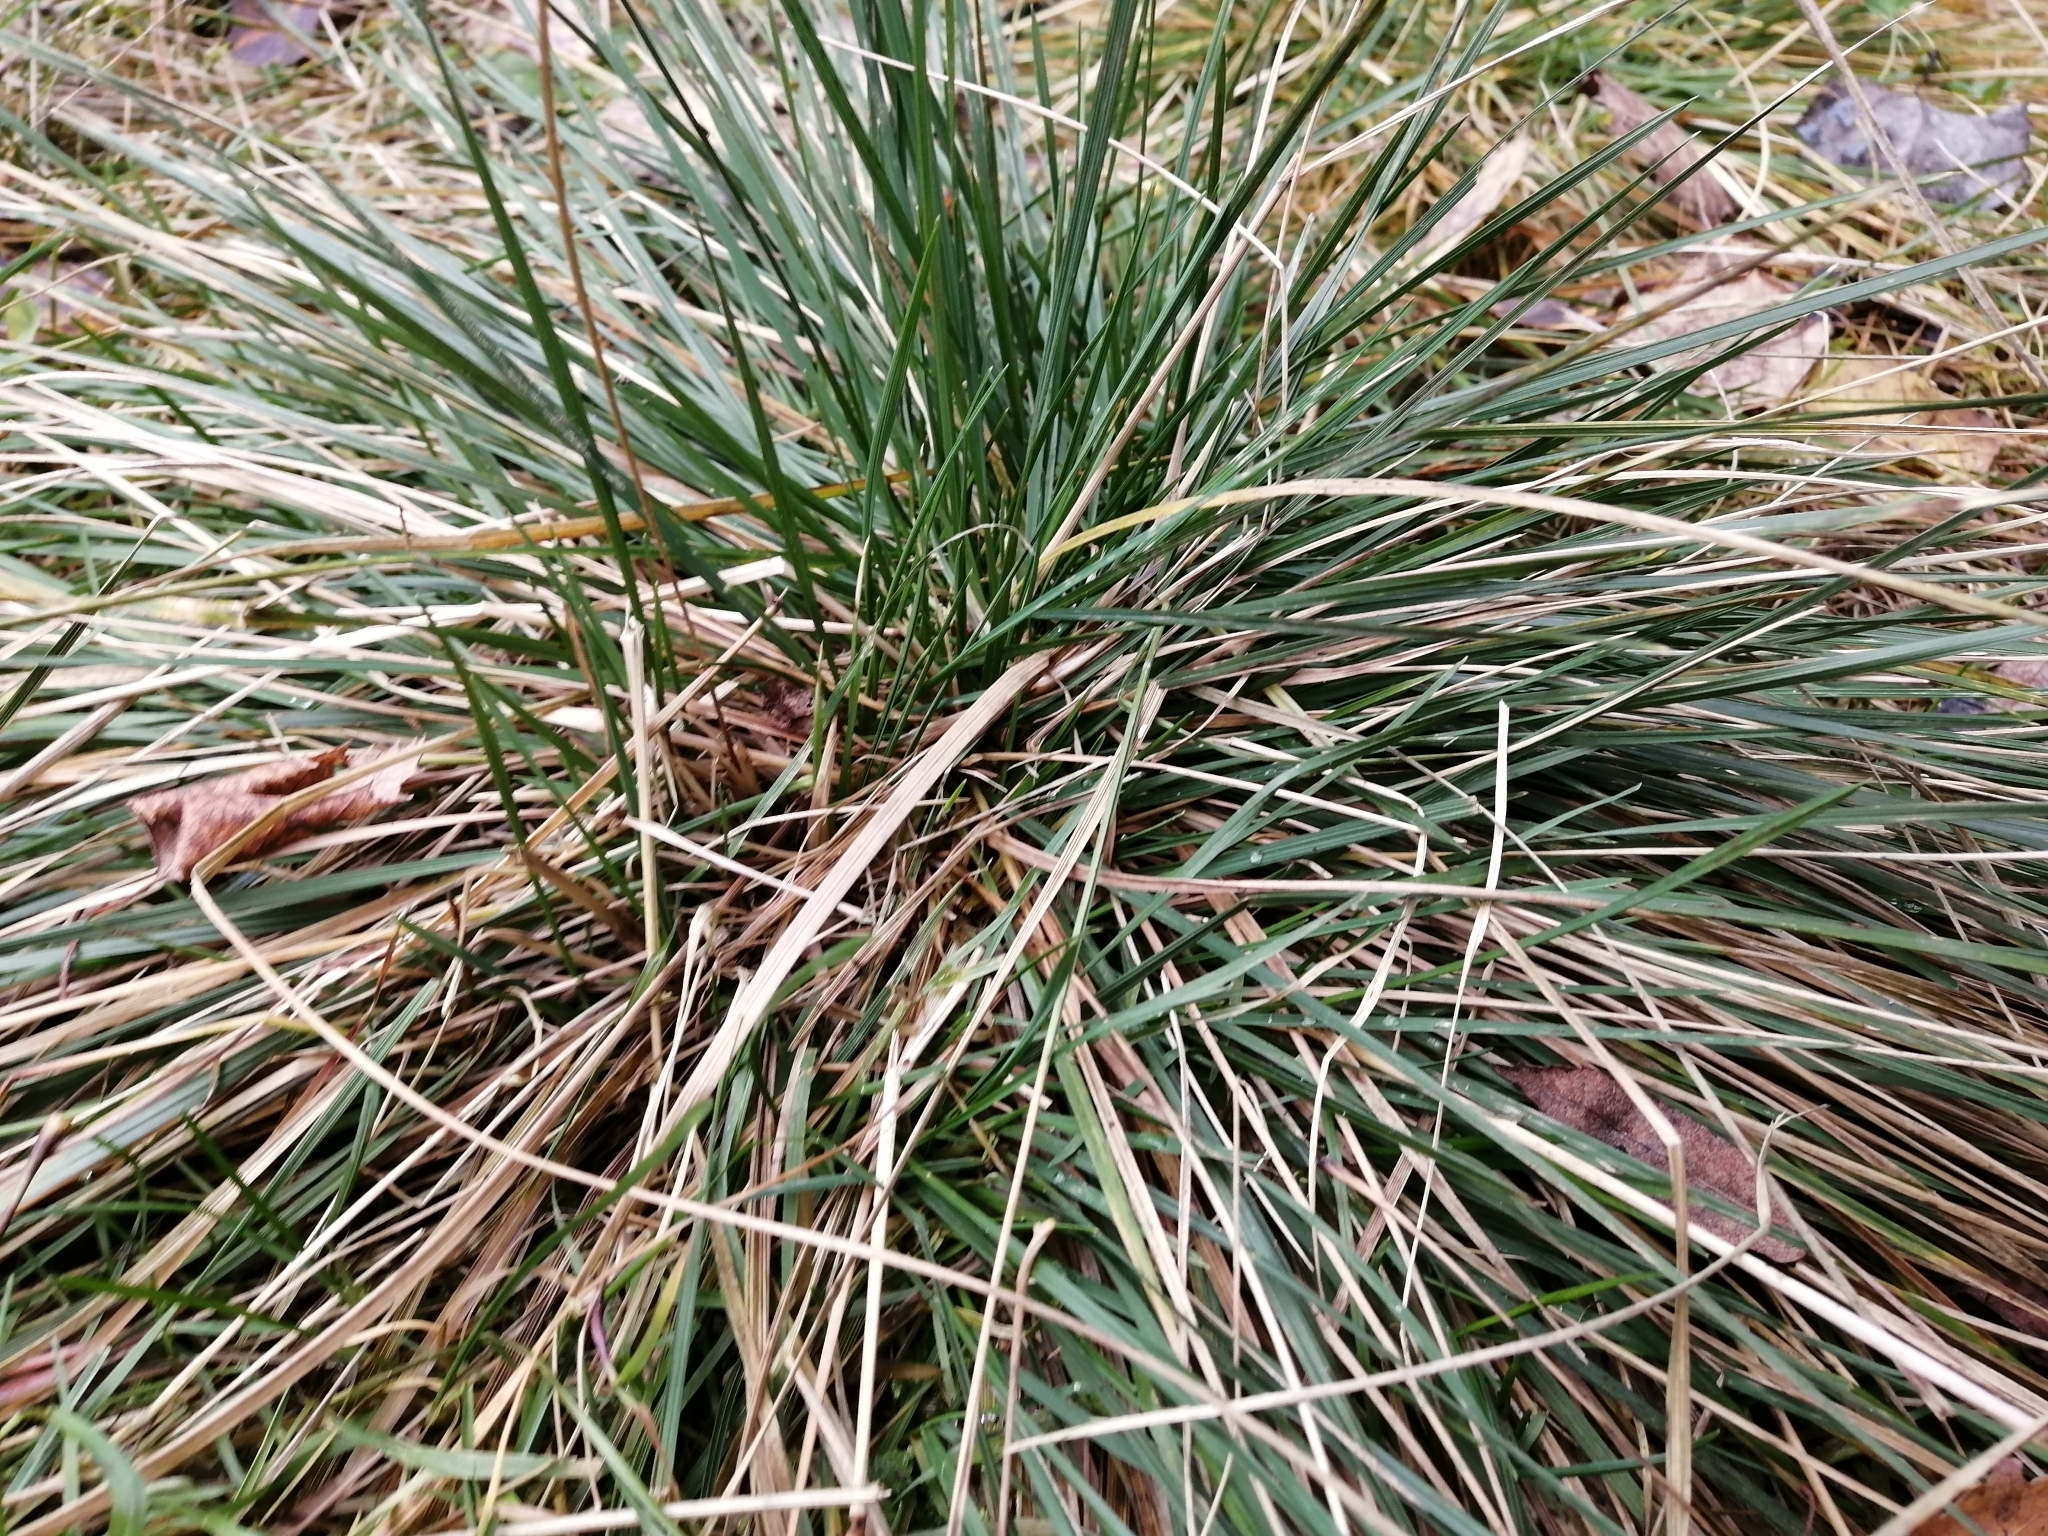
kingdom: Plantae
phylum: Tracheophyta
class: Liliopsida
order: Poales
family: Poaceae
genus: Deschampsia
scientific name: Deschampsia cespitosa
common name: Tufted hair-grass
